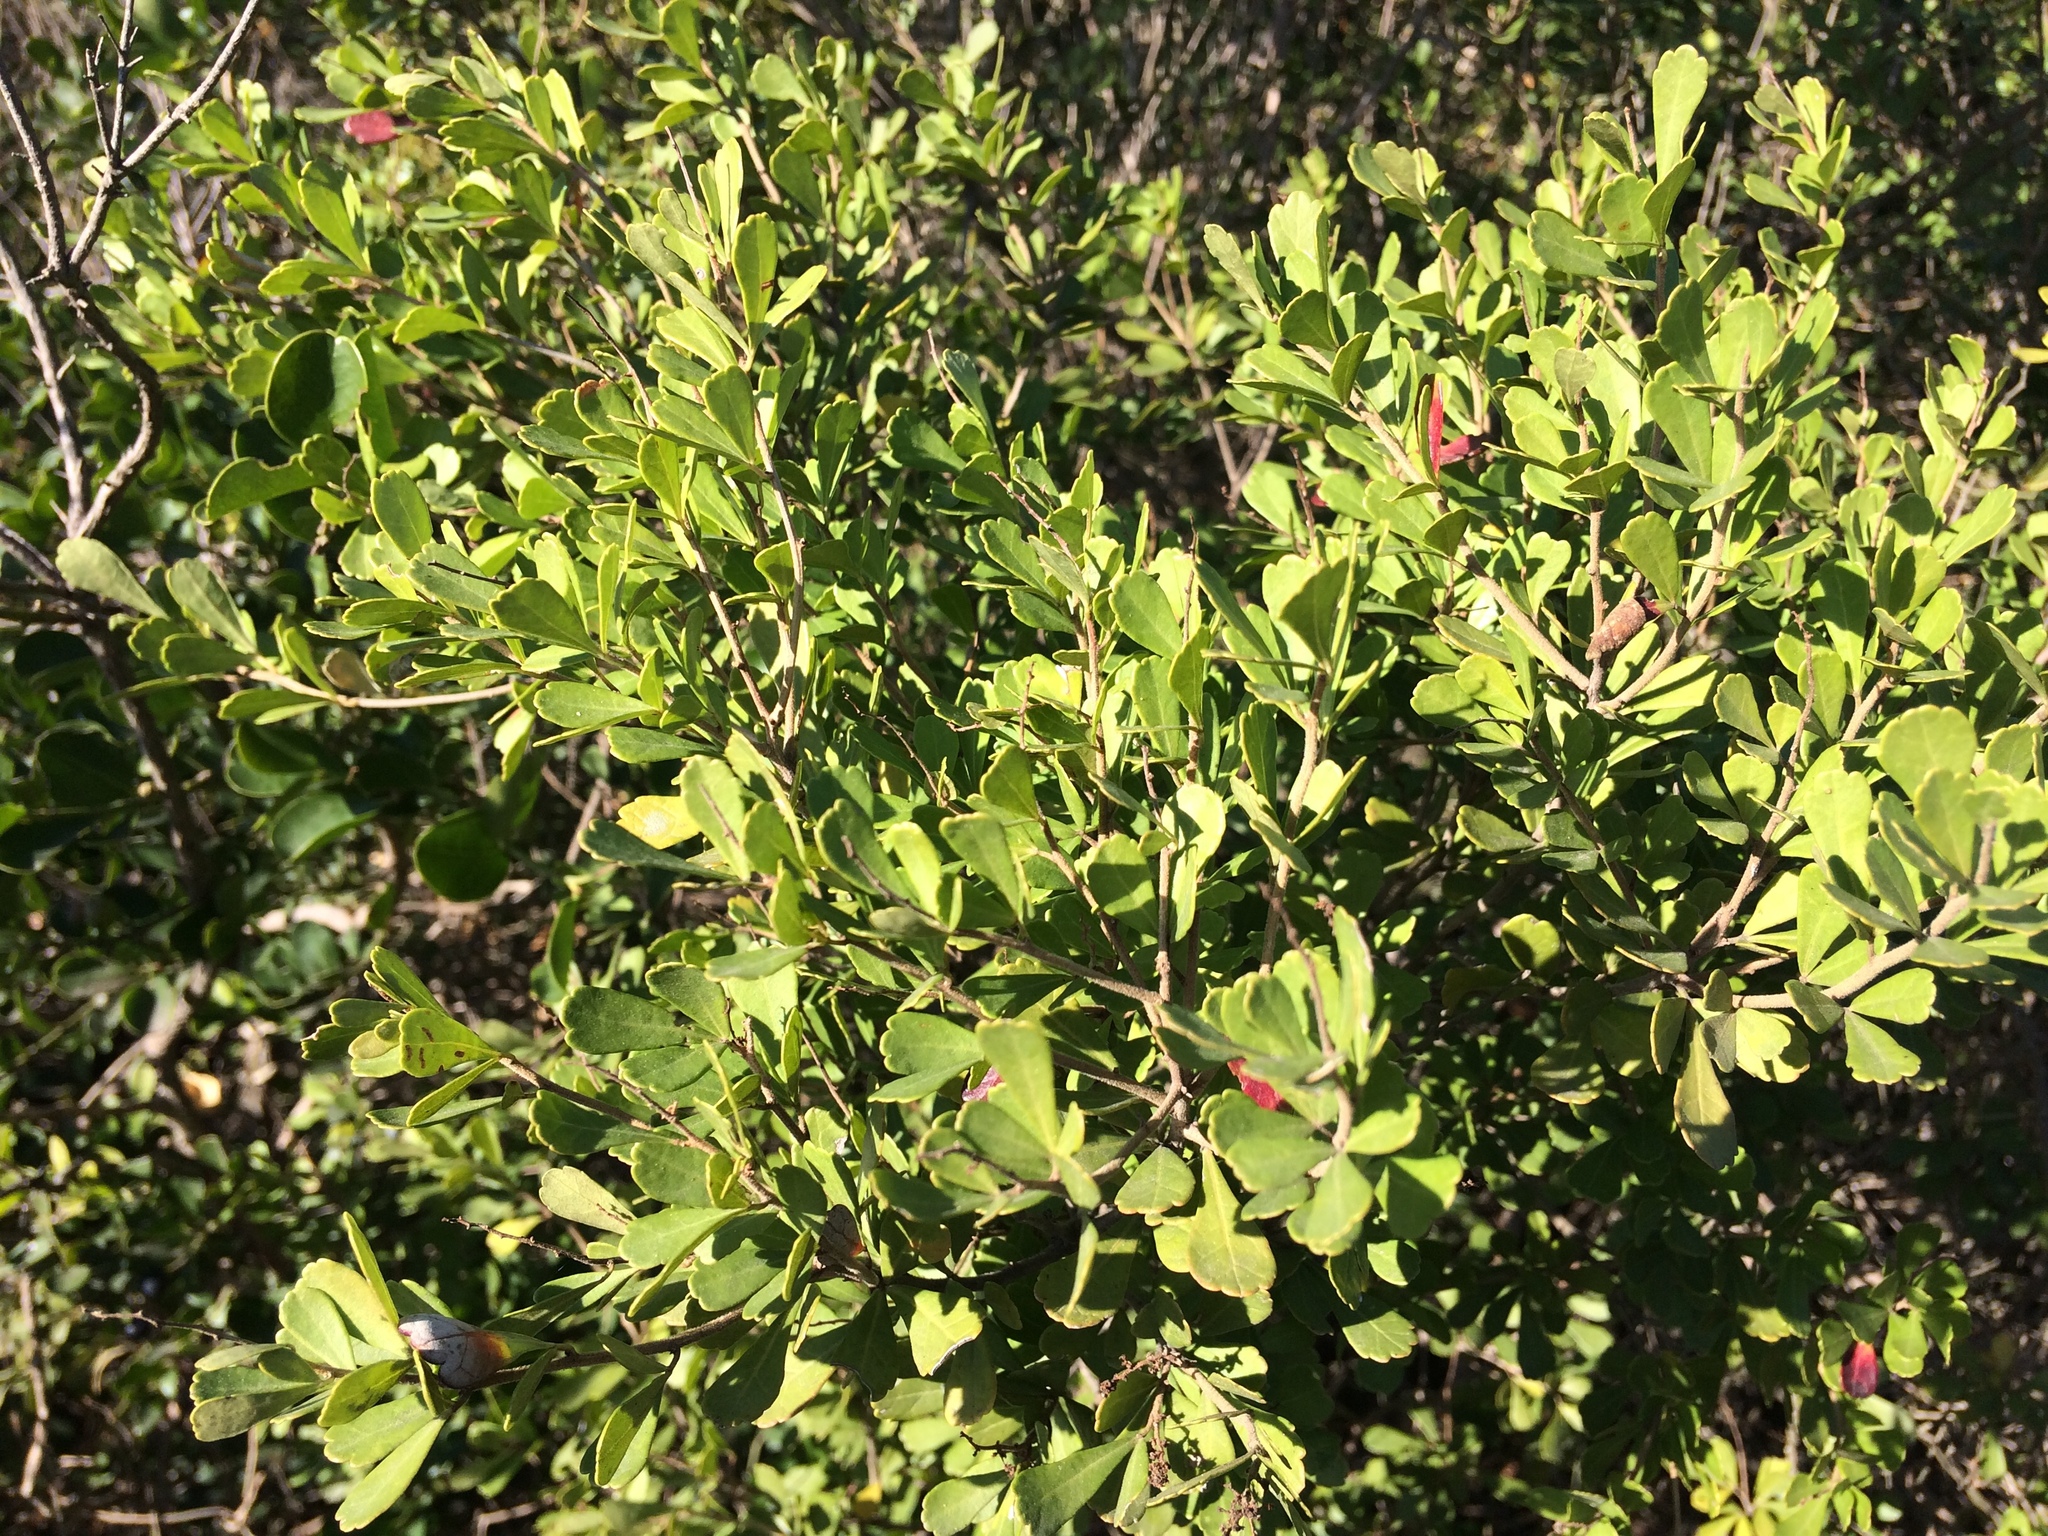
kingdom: Plantae
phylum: Tracheophyta
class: Magnoliopsida
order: Sapindales
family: Anacardiaceae
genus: Searsia
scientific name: Searsia crenata
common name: Crowberry
